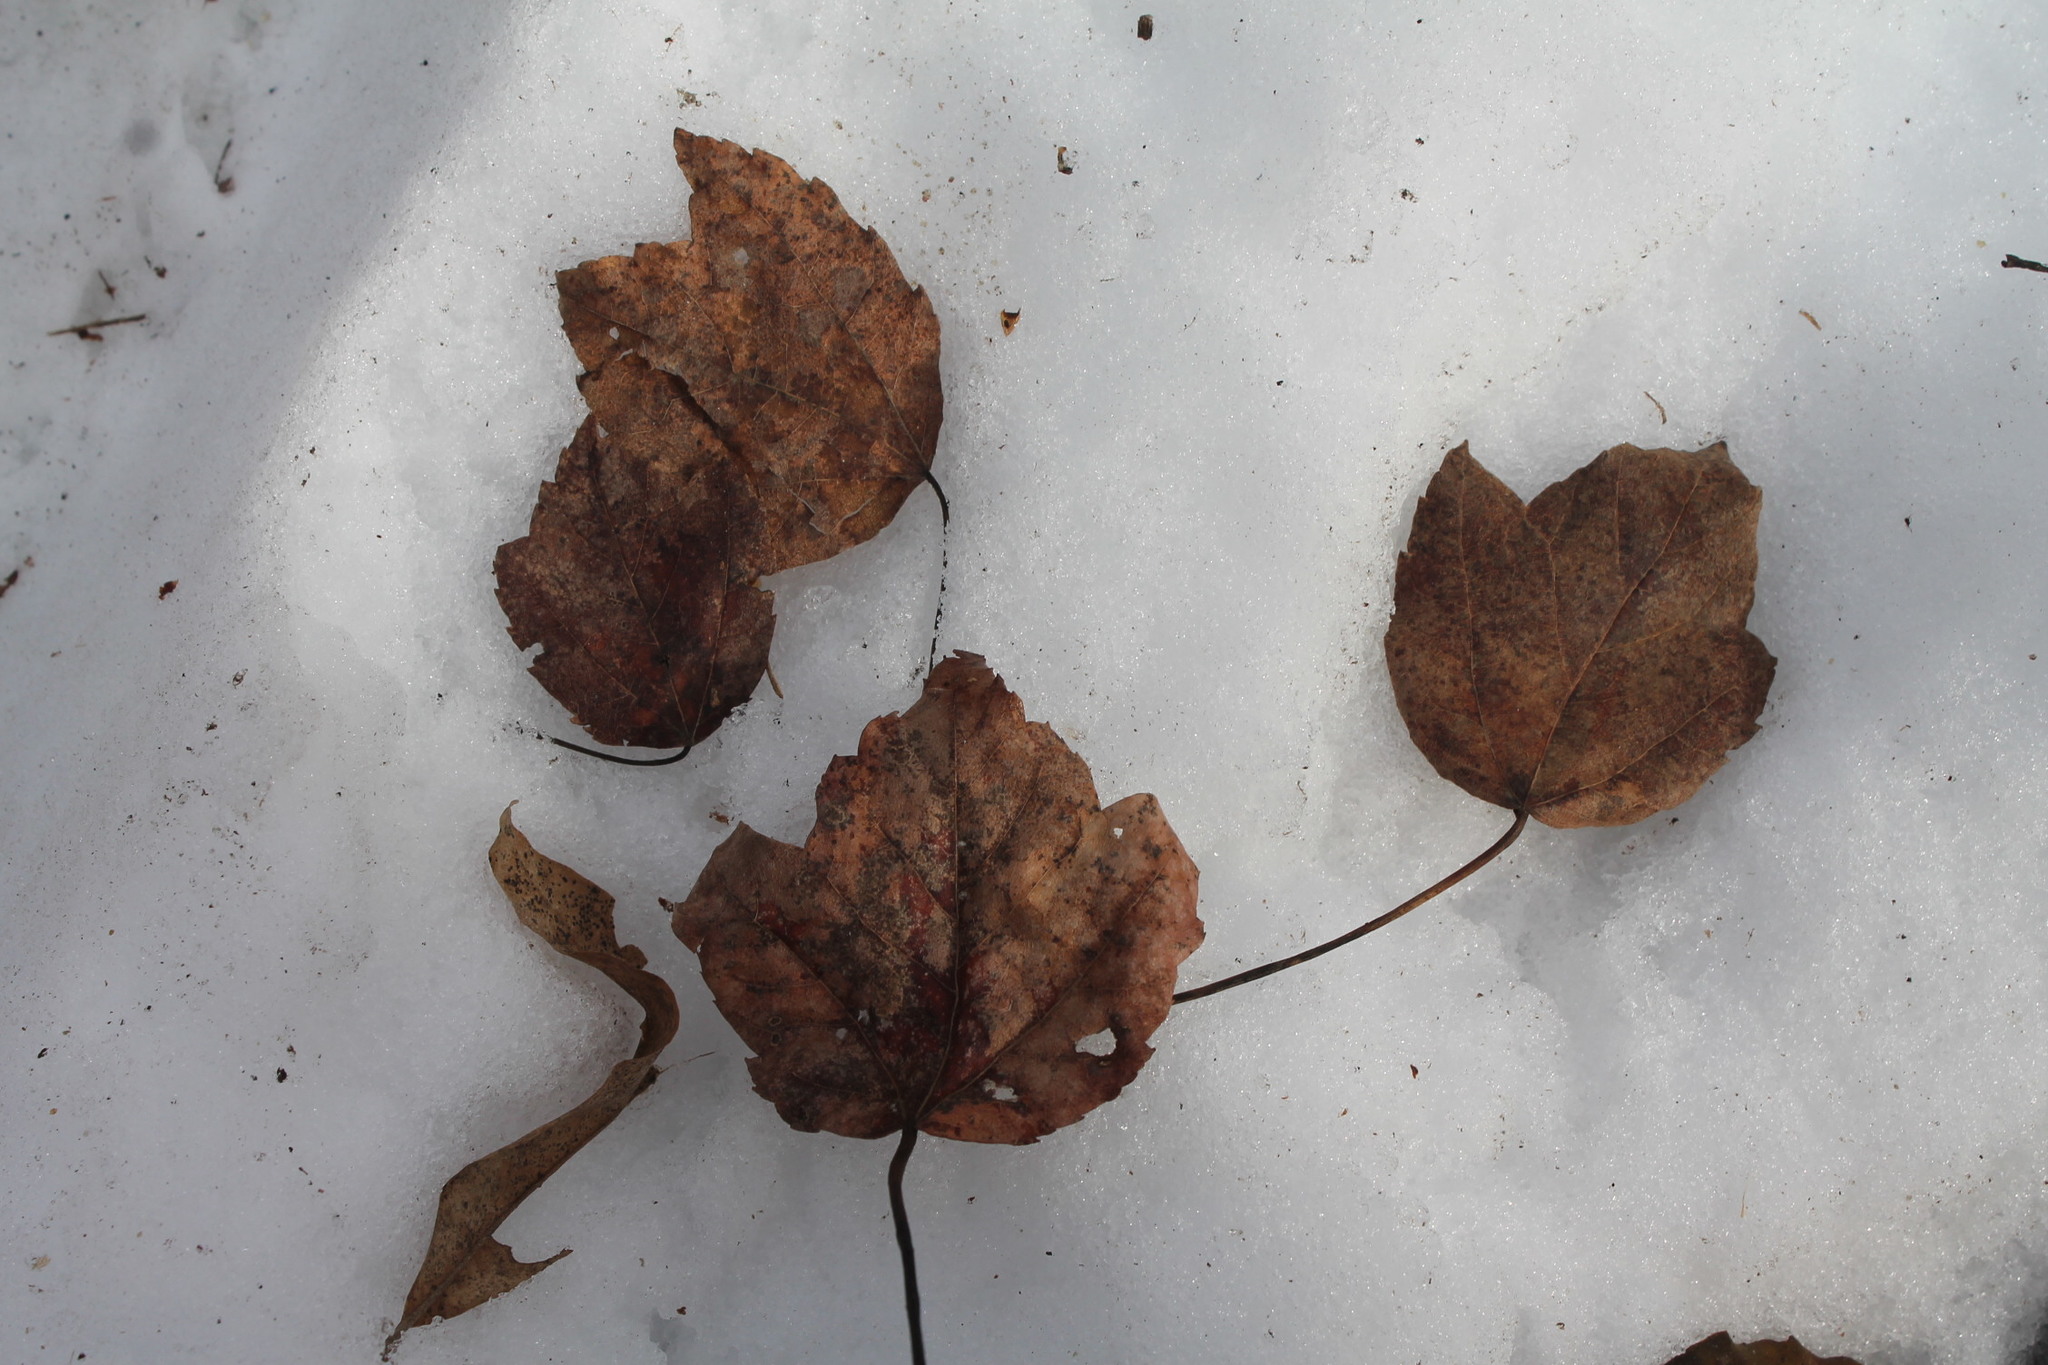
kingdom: Plantae
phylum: Tracheophyta
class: Magnoliopsida
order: Sapindales
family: Sapindaceae
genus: Acer
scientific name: Acer rubrum
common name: Red maple
